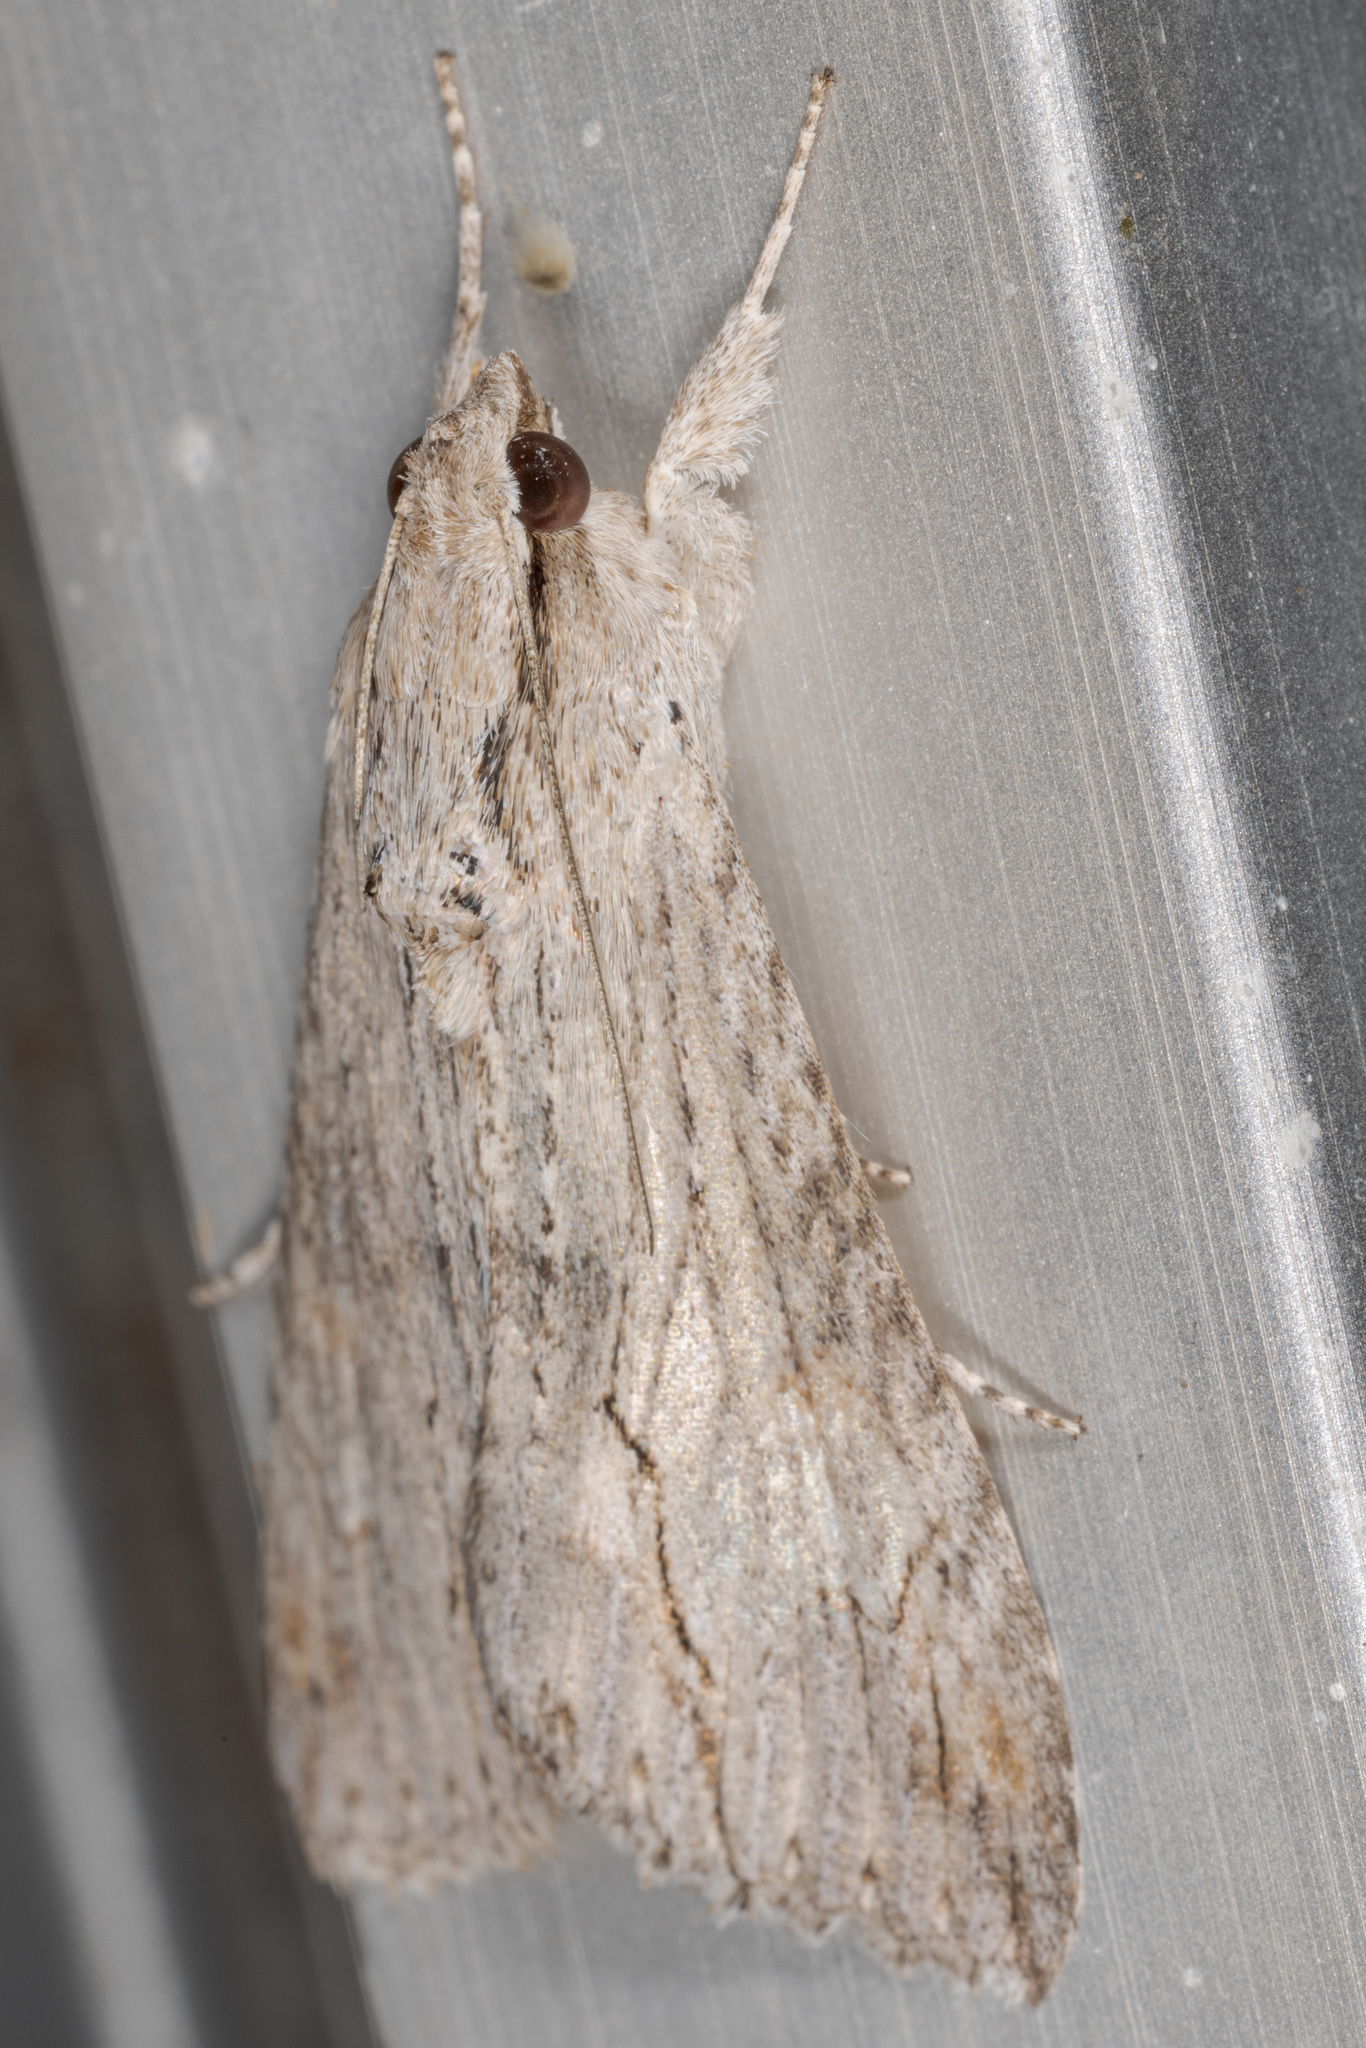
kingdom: Animalia
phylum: Arthropoda
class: Insecta
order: Lepidoptera
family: Erebidae
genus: Melipotis
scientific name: Melipotis acontioides
